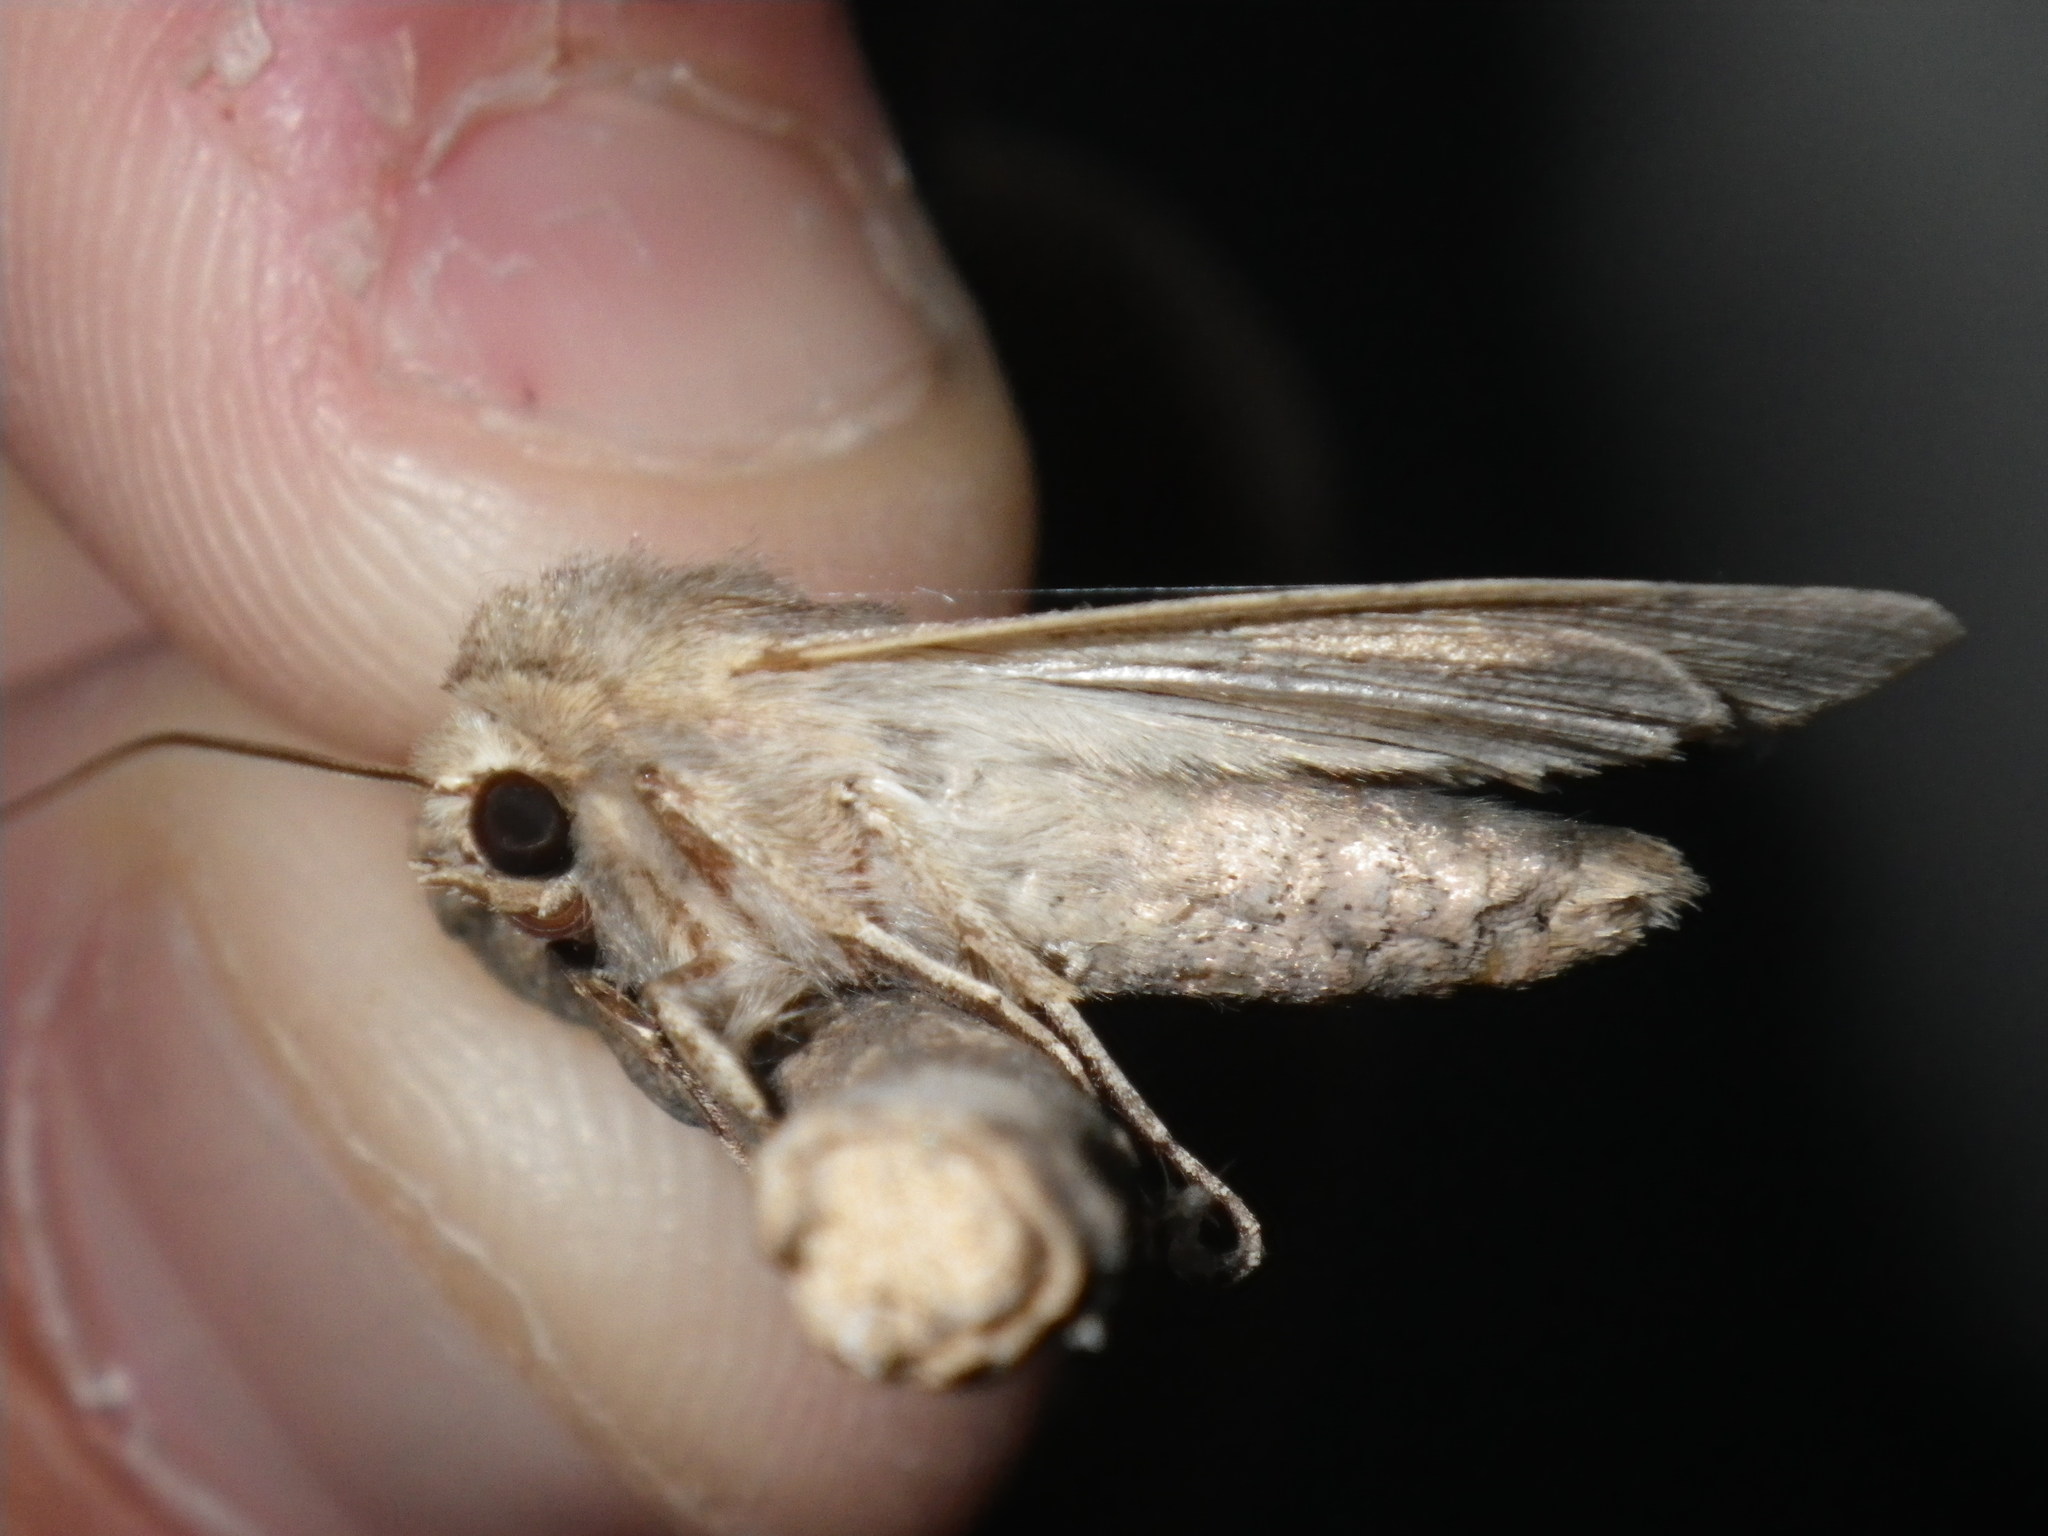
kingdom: Animalia
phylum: Arthropoda
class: Insecta
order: Lepidoptera
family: Noctuidae
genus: Mythimna
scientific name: Mythimna unipuncta
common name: White-speck
